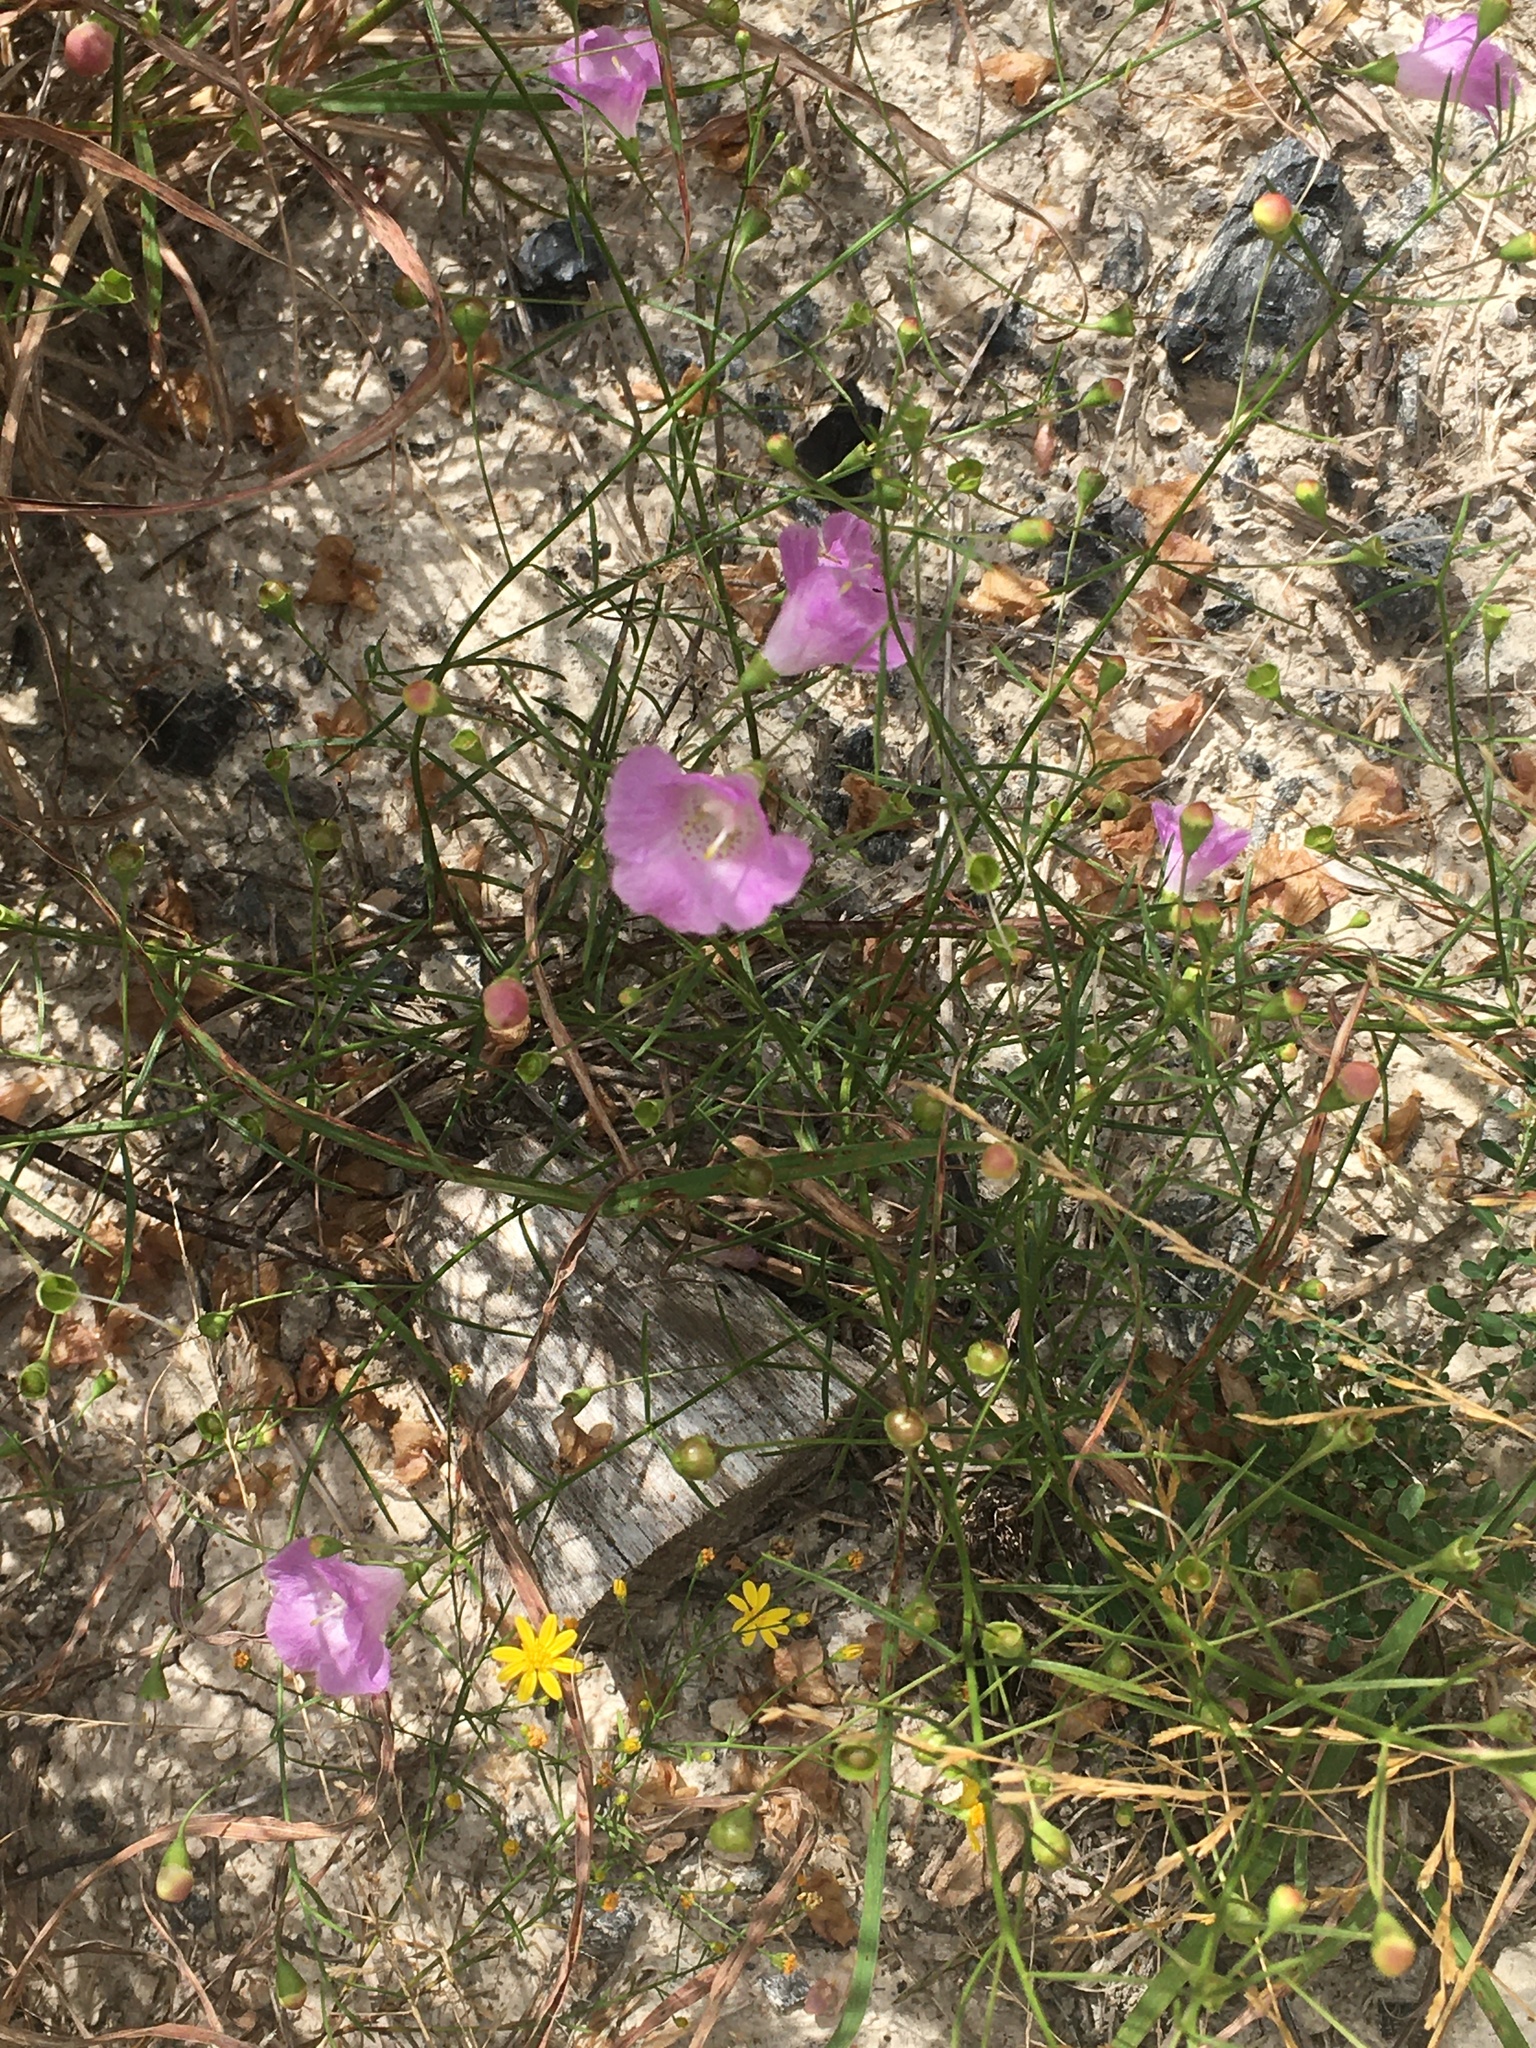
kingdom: Plantae
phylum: Tracheophyta
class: Magnoliopsida
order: Lamiales
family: Orobanchaceae
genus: Agalinis
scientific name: Agalinis edwardsiana
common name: Plateau-gerardia
